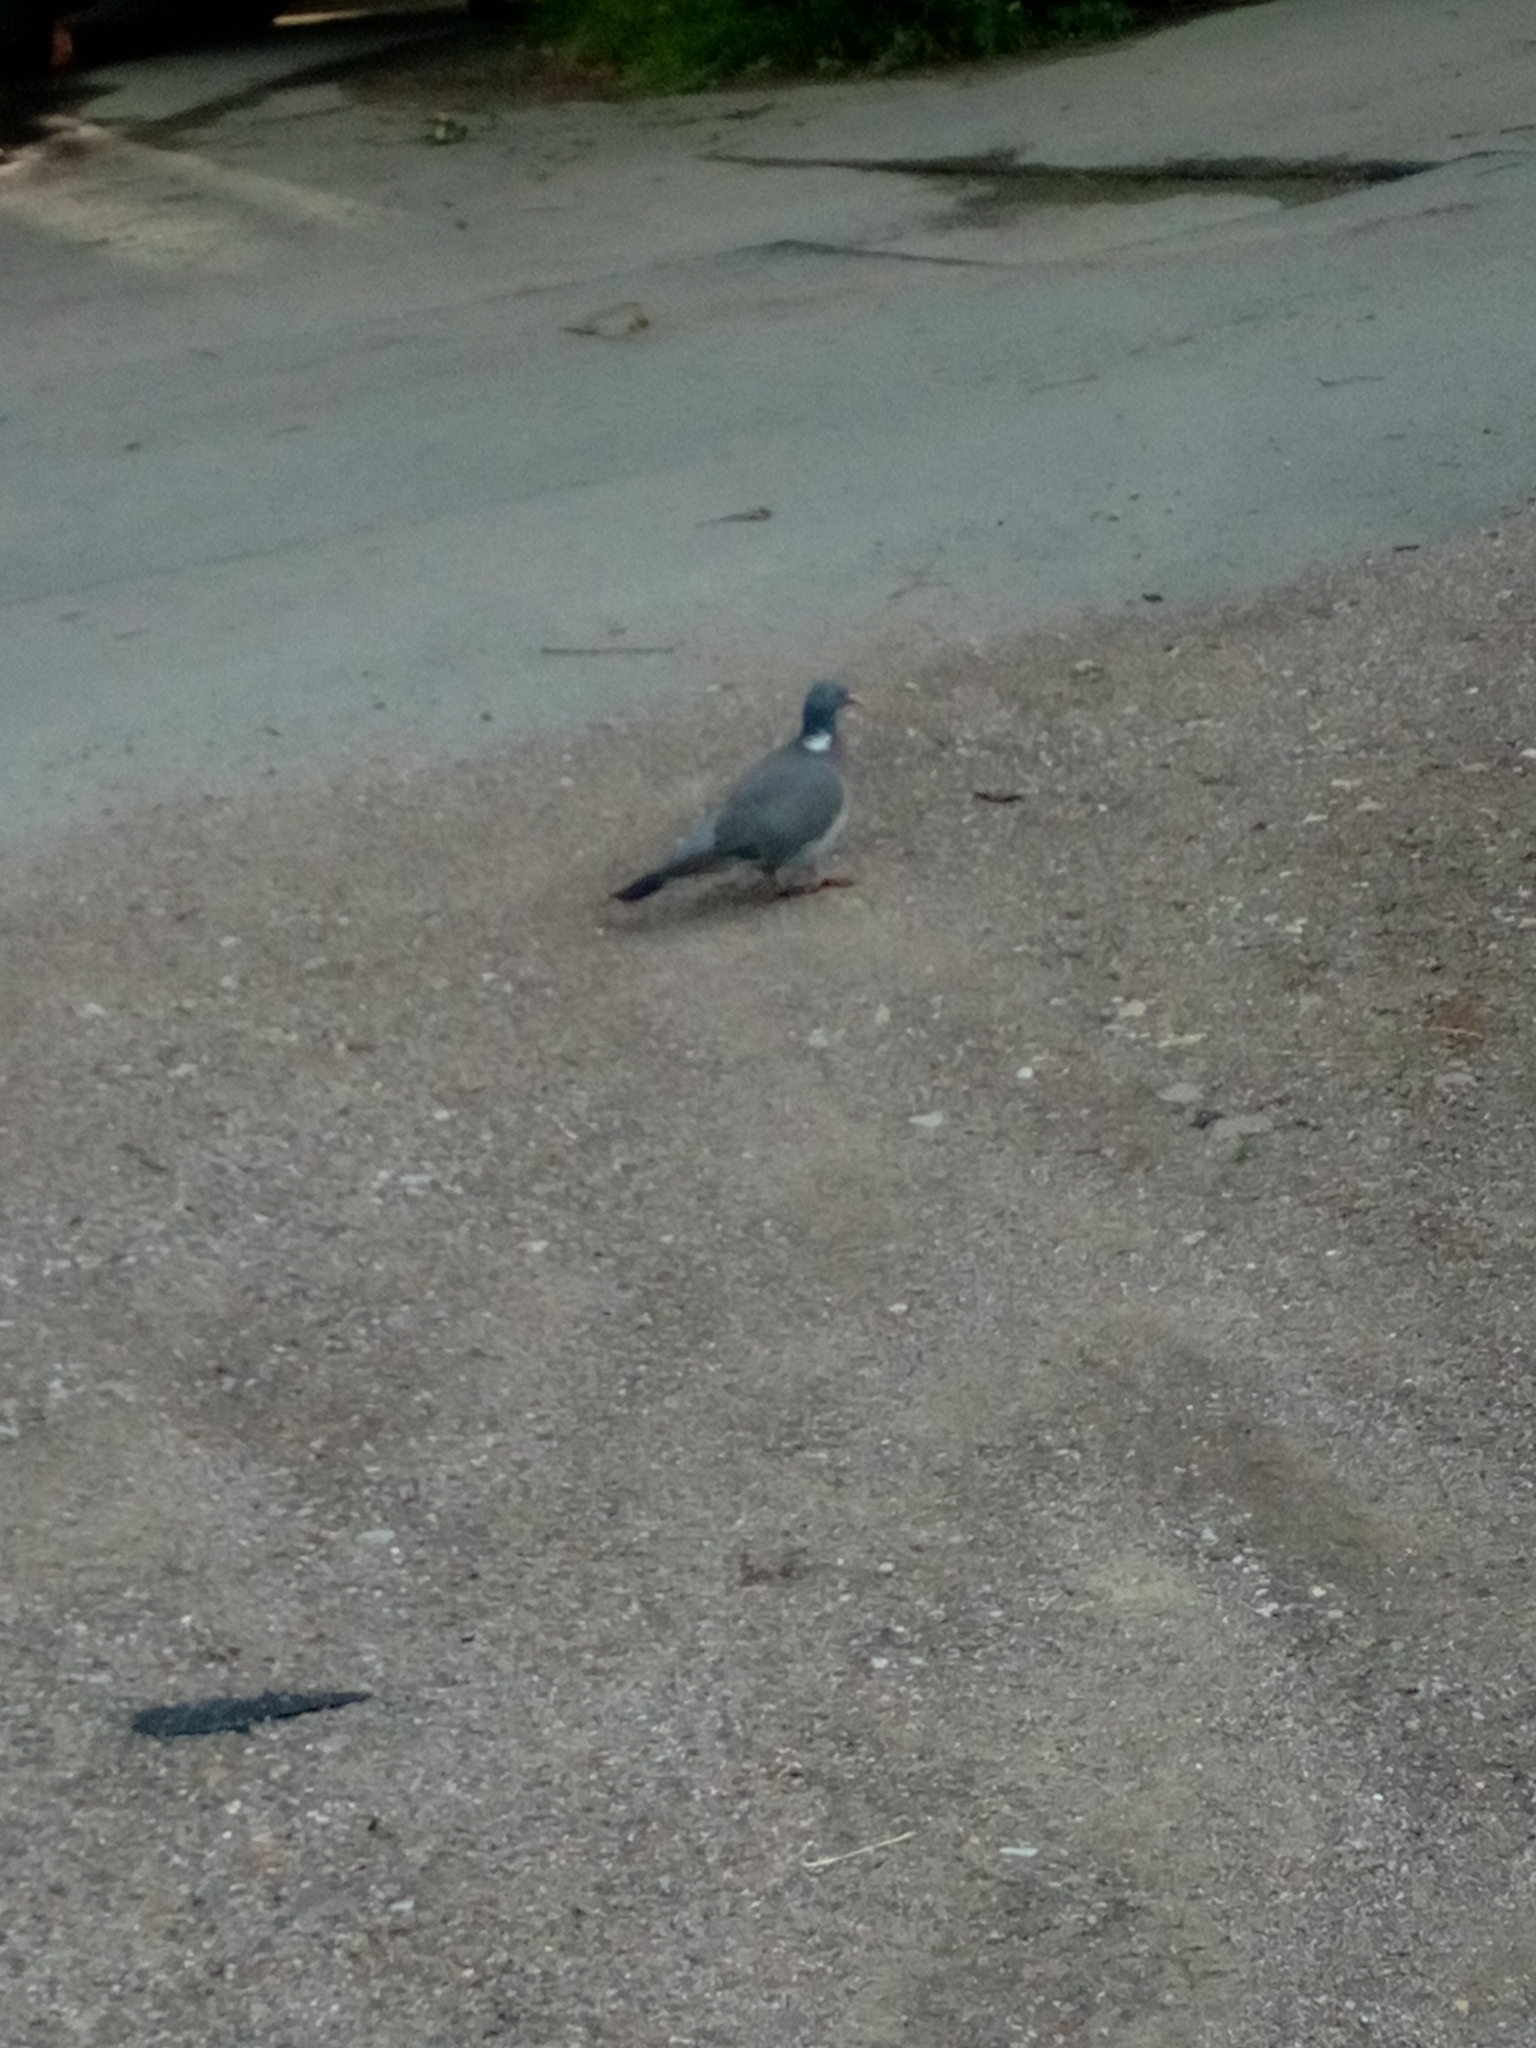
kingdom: Animalia
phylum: Chordata
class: Aves
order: Columbiformes
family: Columbidae
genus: Columba
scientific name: Columba palumbus
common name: Common wood pigeon
